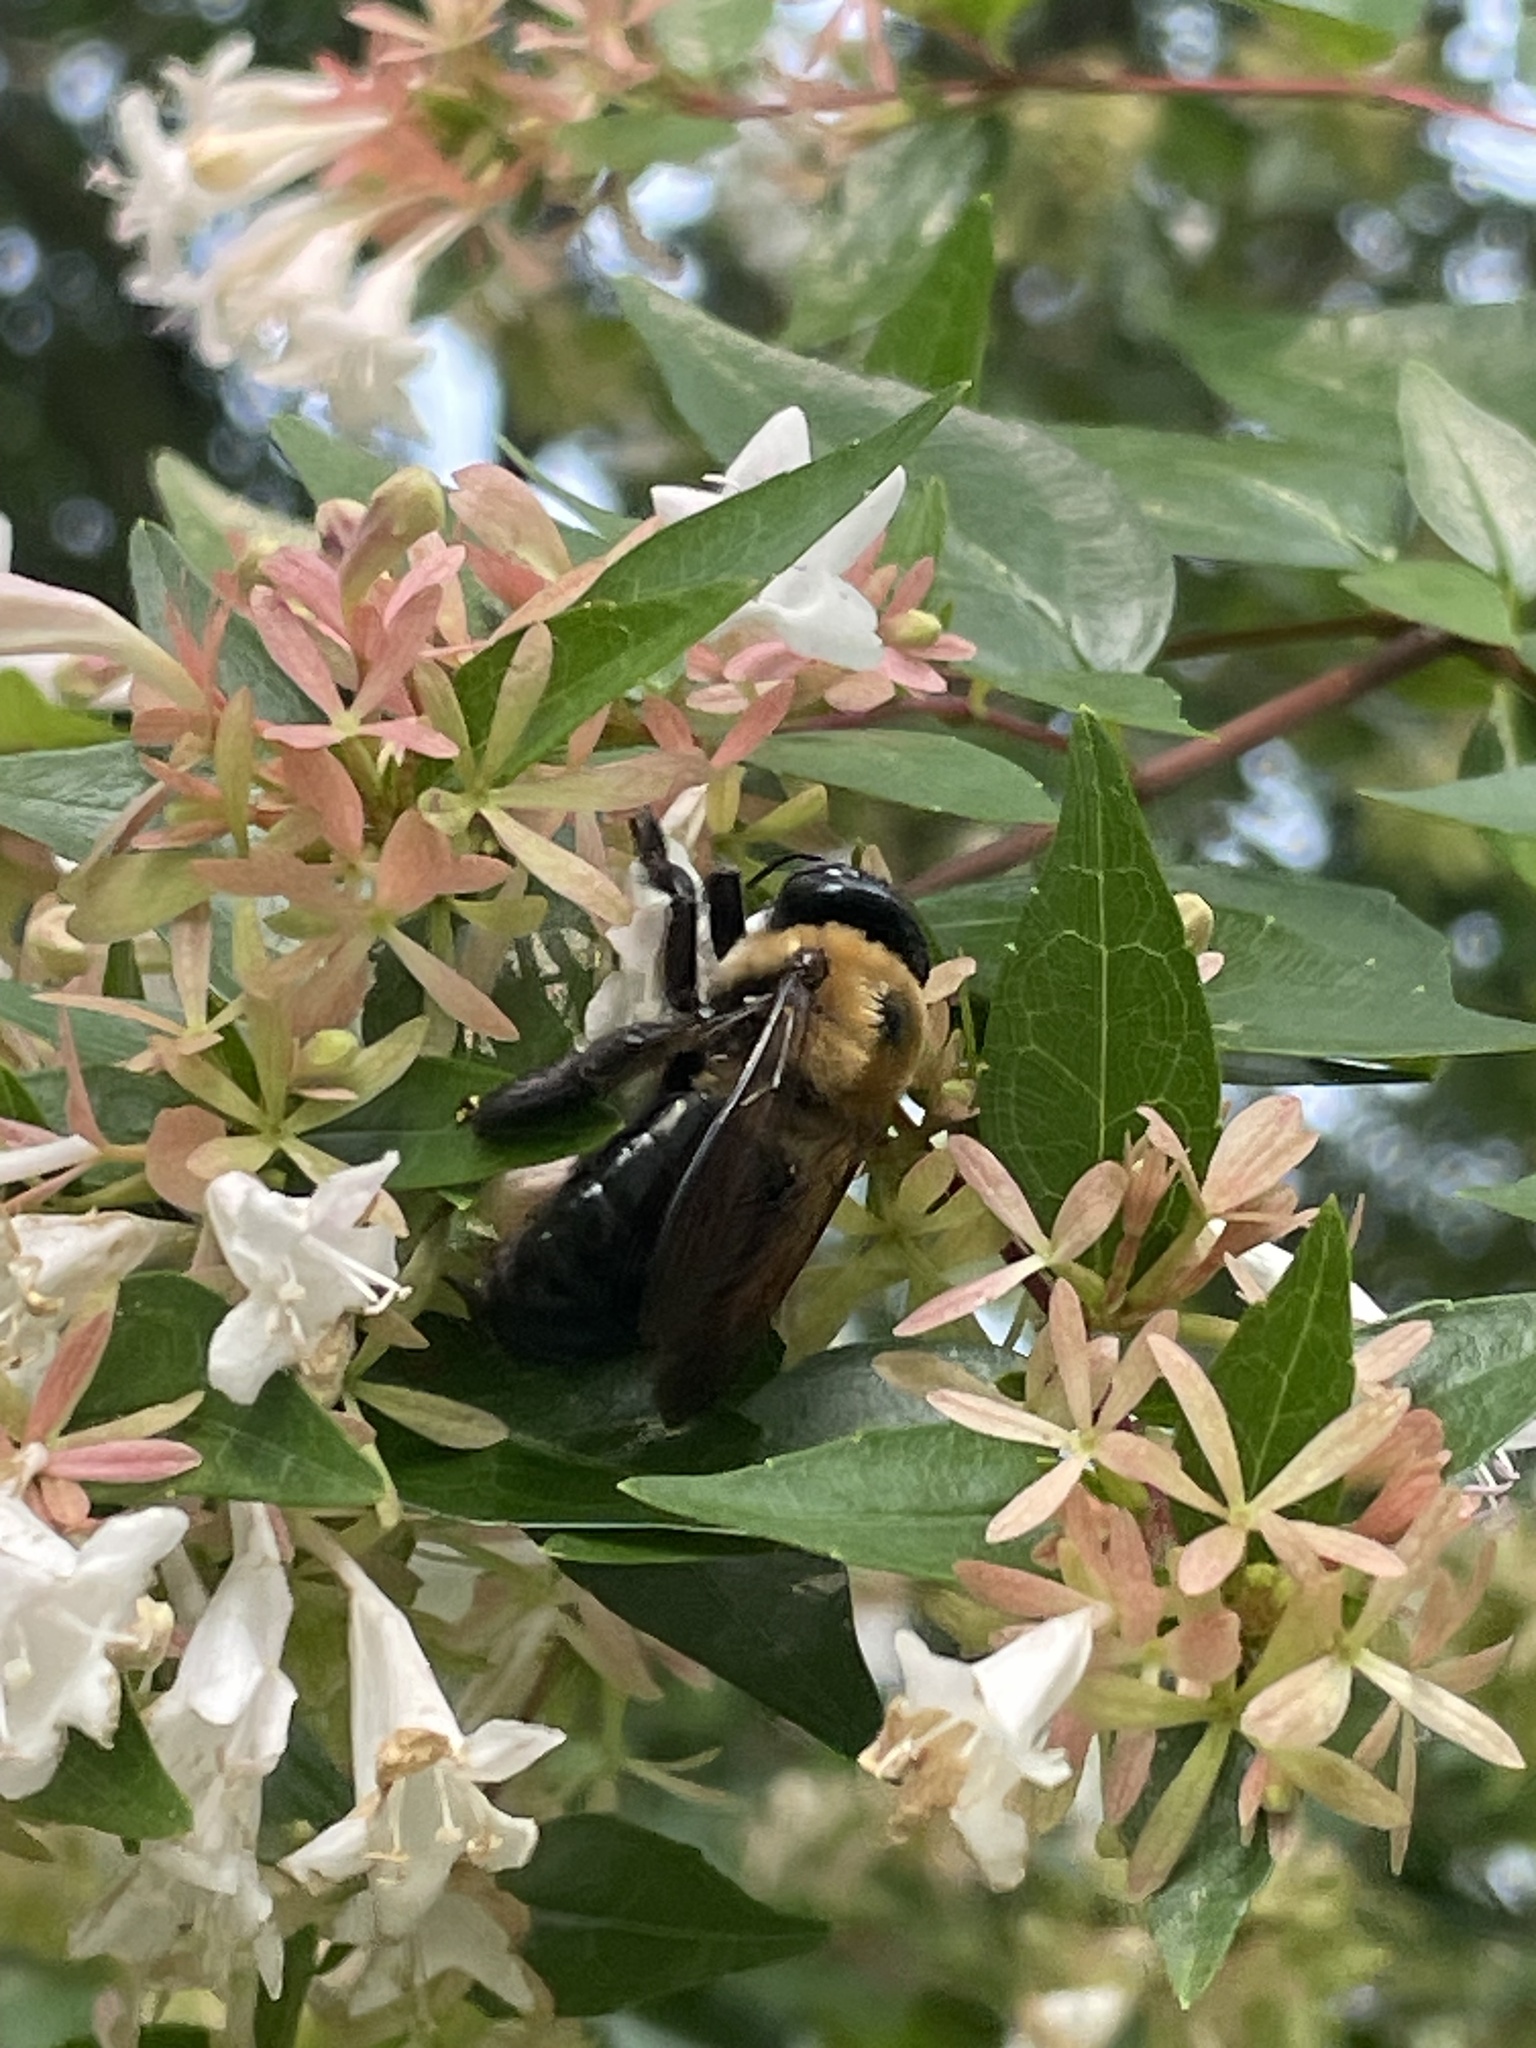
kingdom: Animalia
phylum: Arthropoda
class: Insecta
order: Hymenoptera
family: Apidae
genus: Xylocopa
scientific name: Xylocopa virginica
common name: Carpenter bee
